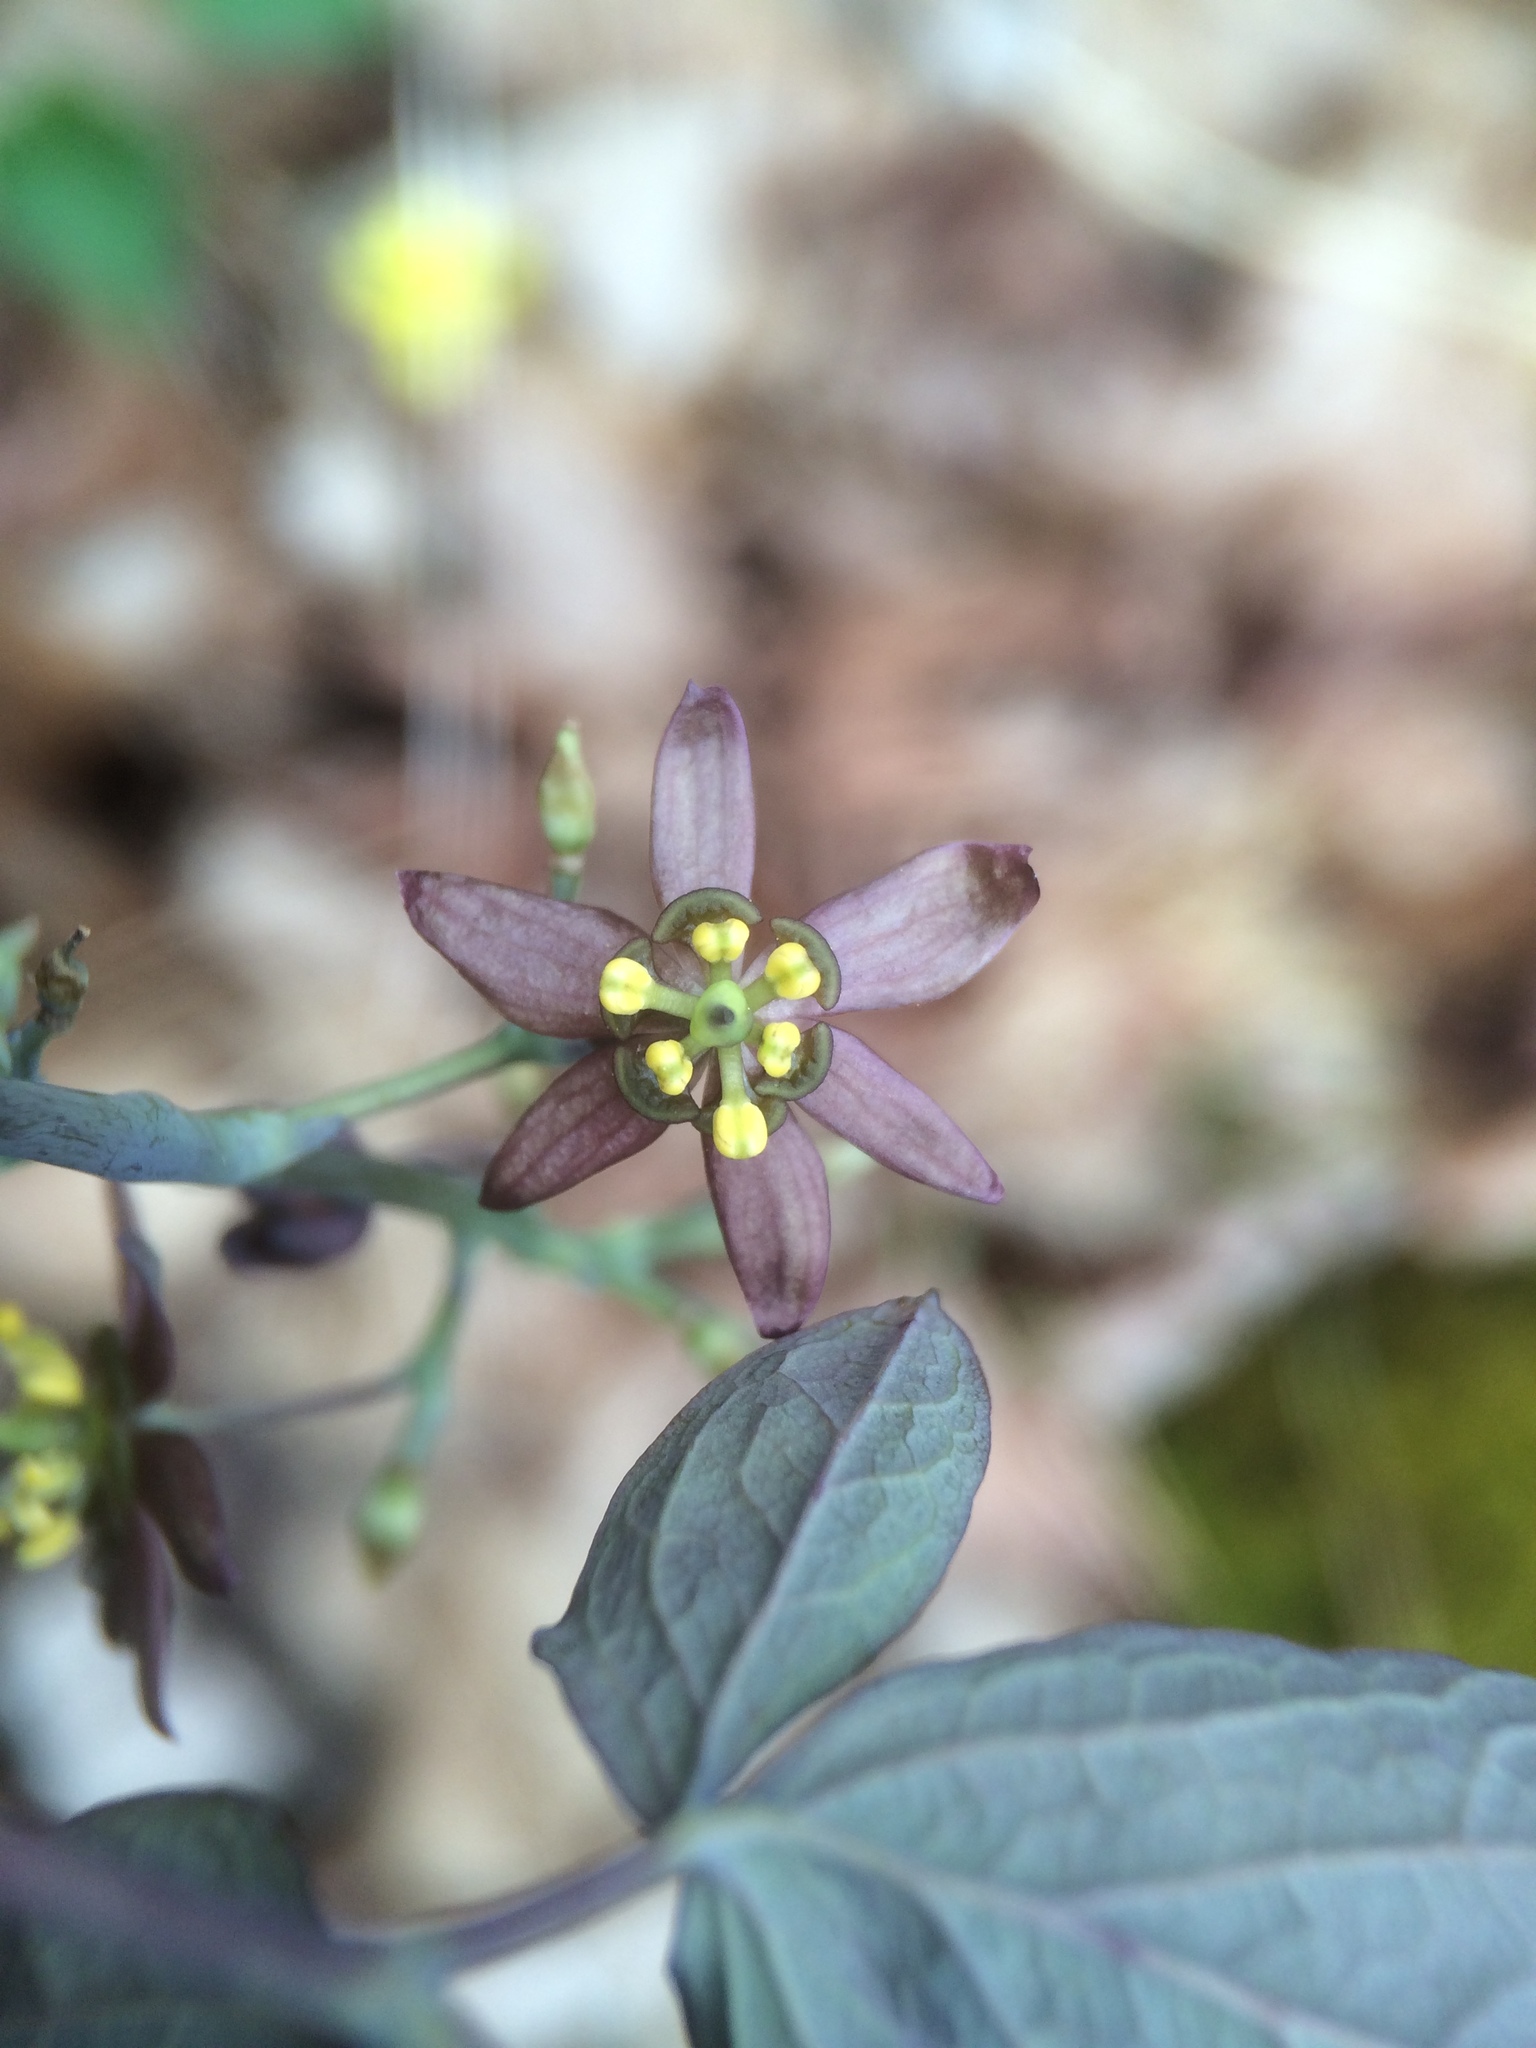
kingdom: Plantae
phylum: Tracheophyta
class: Magnoliopsida
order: Ranunculales
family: Berberidaceae
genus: Caulophyllum
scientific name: Caulophyllum giganteum
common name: Blue cohosh
